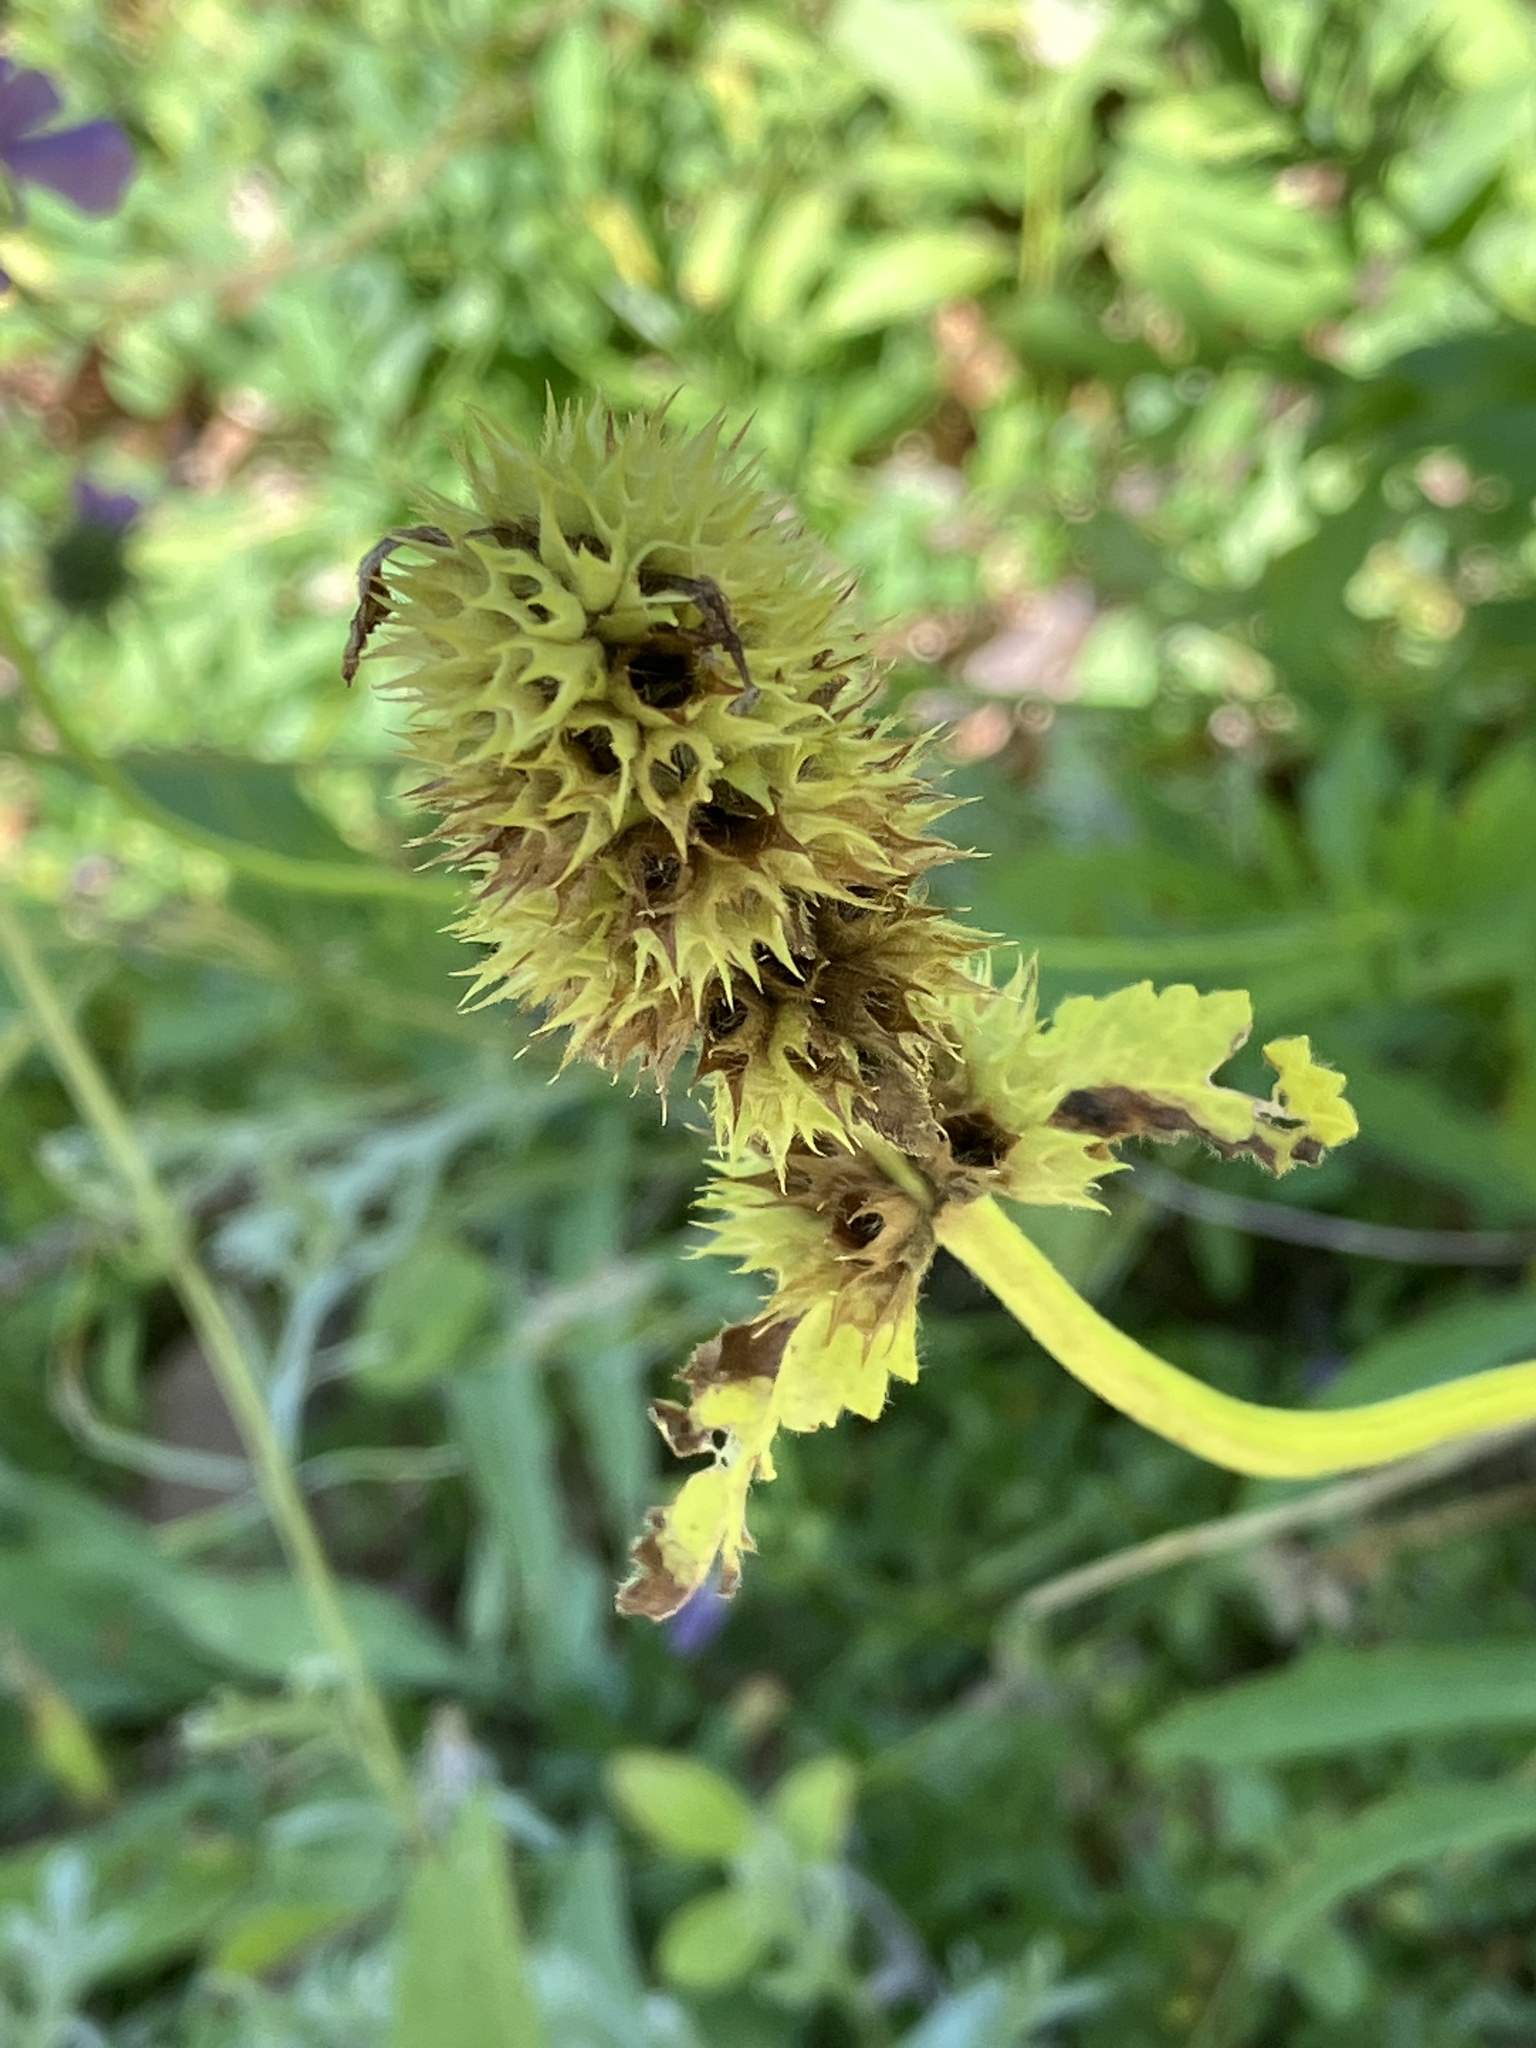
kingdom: Plantae
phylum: Tracheophyta
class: Magnoliopsida
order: Lamiales
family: Lamiaceae
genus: Betonica
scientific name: Betonica alopecuros
